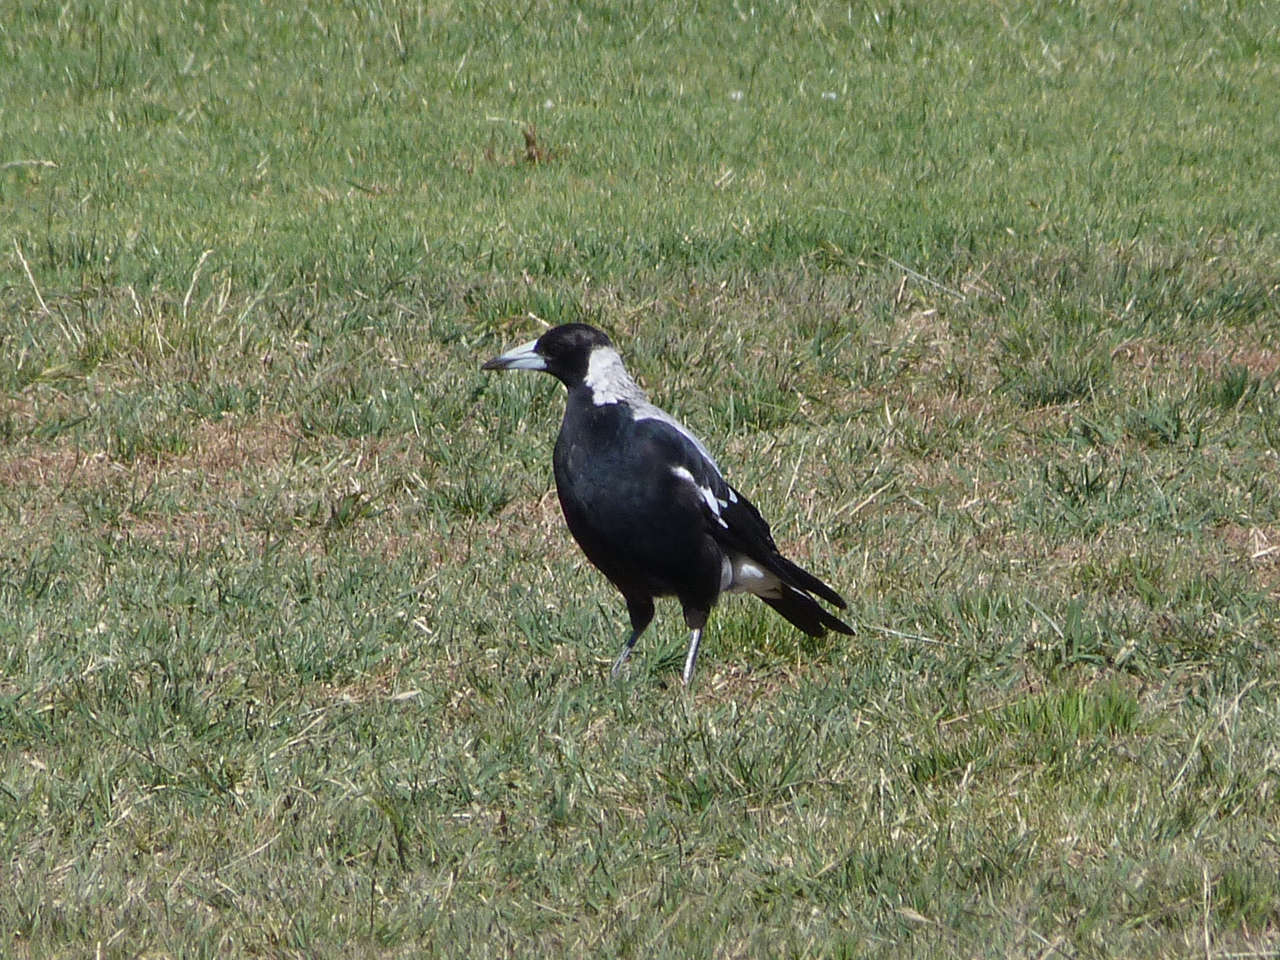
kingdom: Animalia
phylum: Chordata
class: Aves
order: Passeriformes
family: Cracticidae
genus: Gymnorhina
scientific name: Gymnorhina tibicen
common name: Australian magpie
